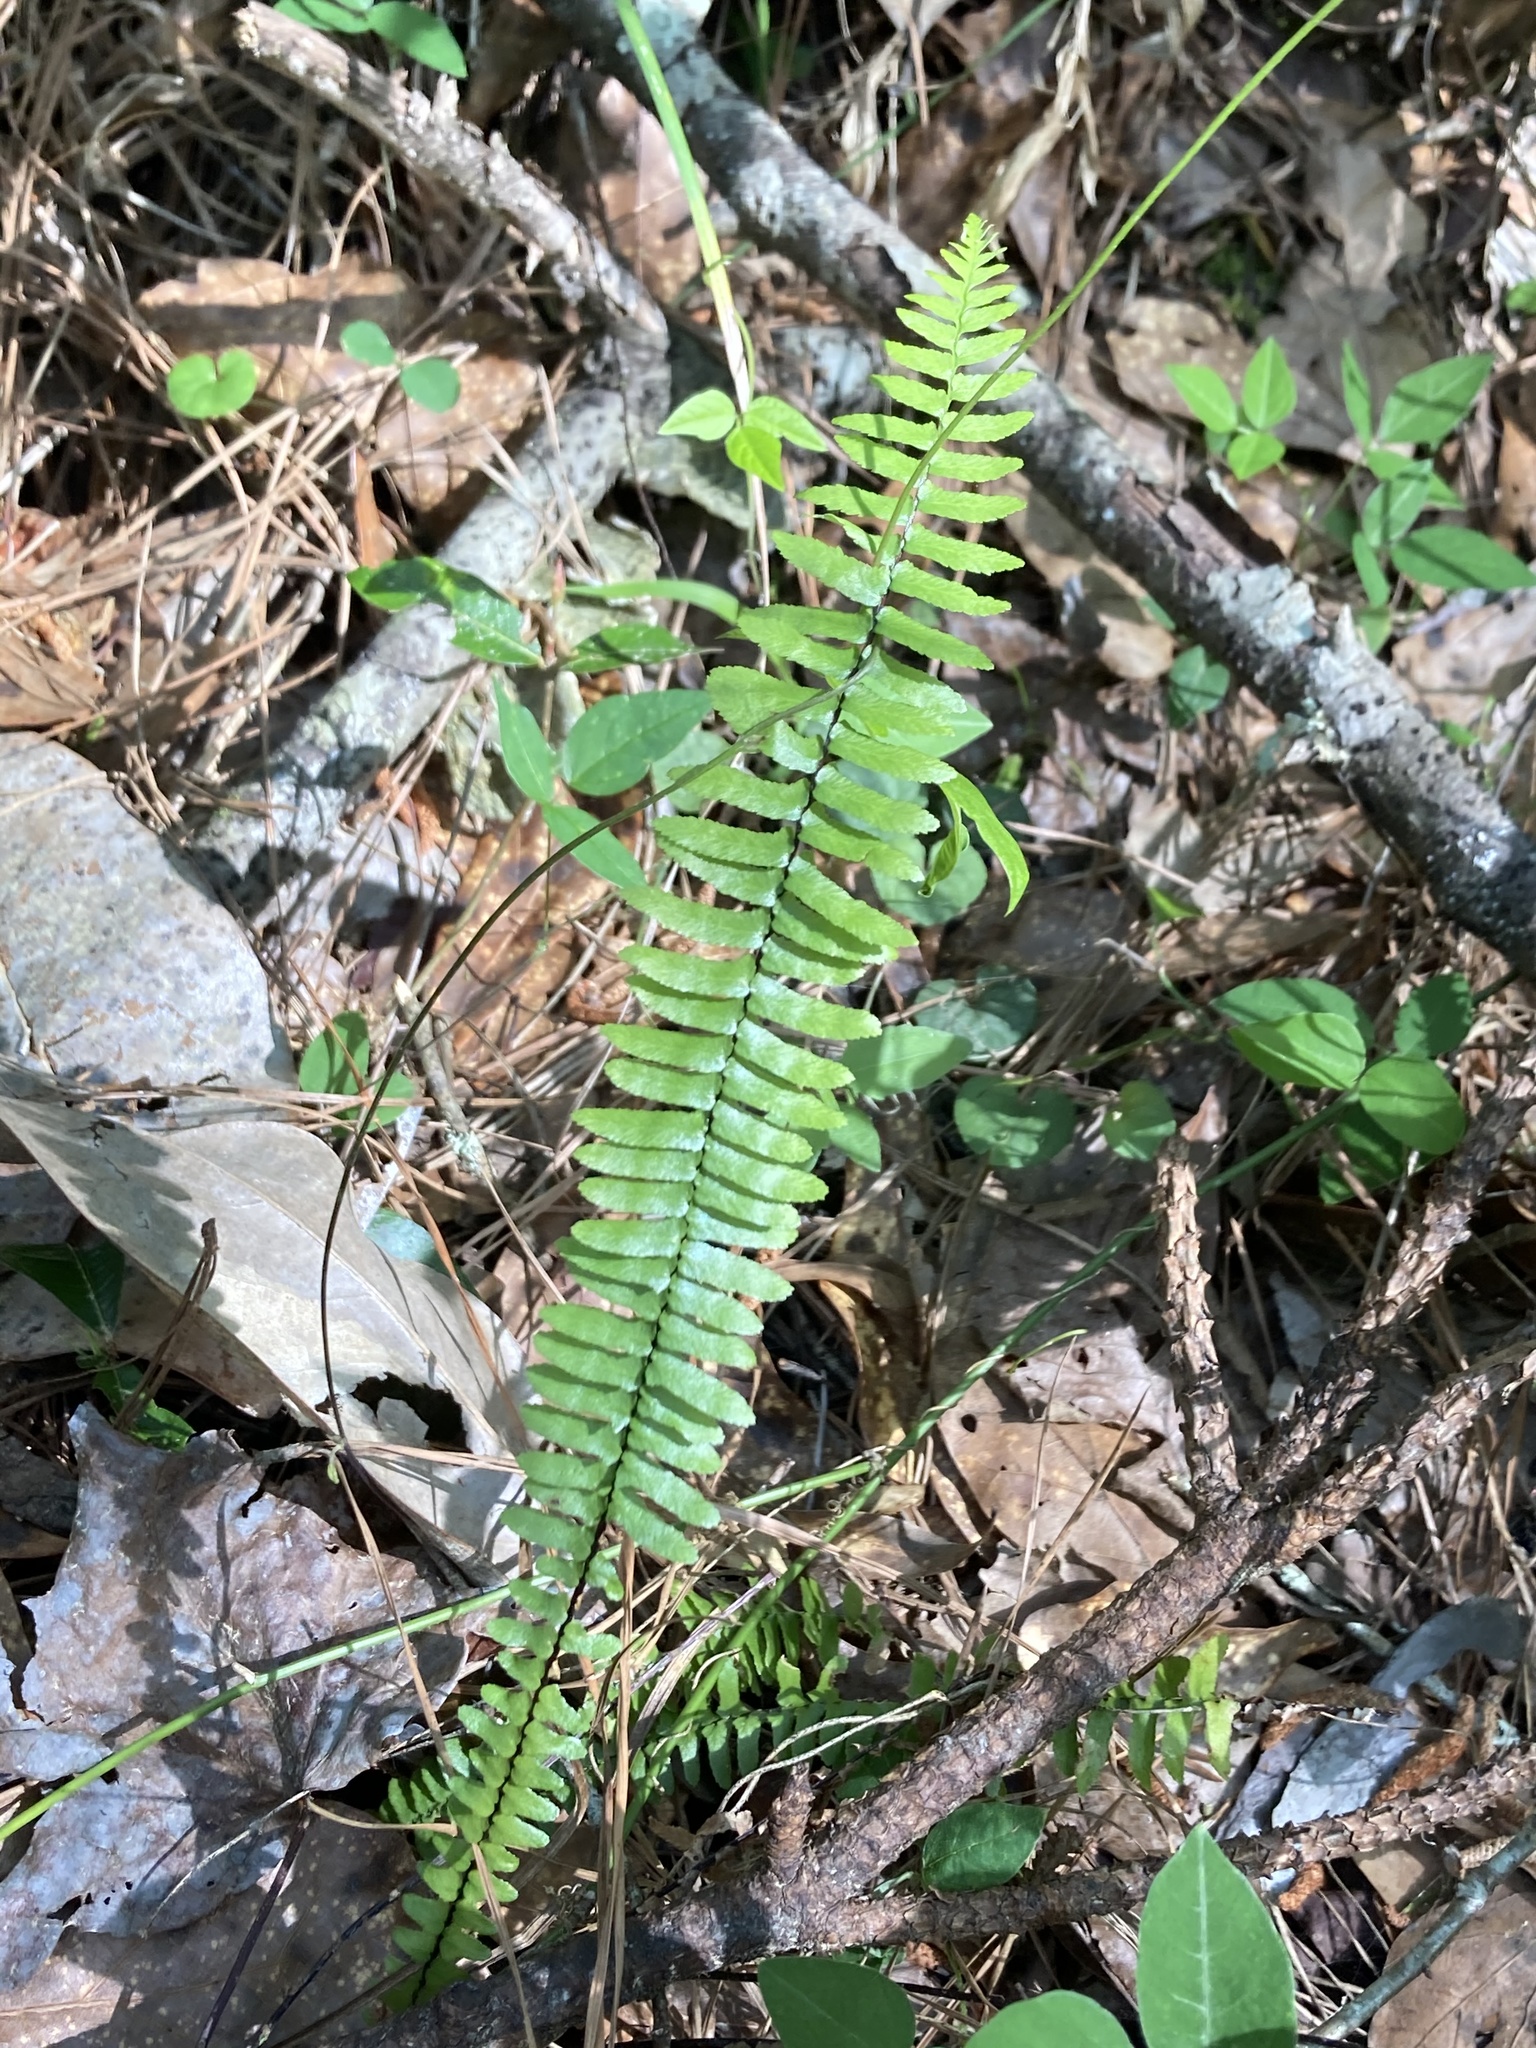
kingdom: Plantae
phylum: Tracheophyta
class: Polypodiopsida
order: Polypodiales
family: Aspleniaceae
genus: Asplenium
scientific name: Asplenium platyneuron
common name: Ebony spleenwort
